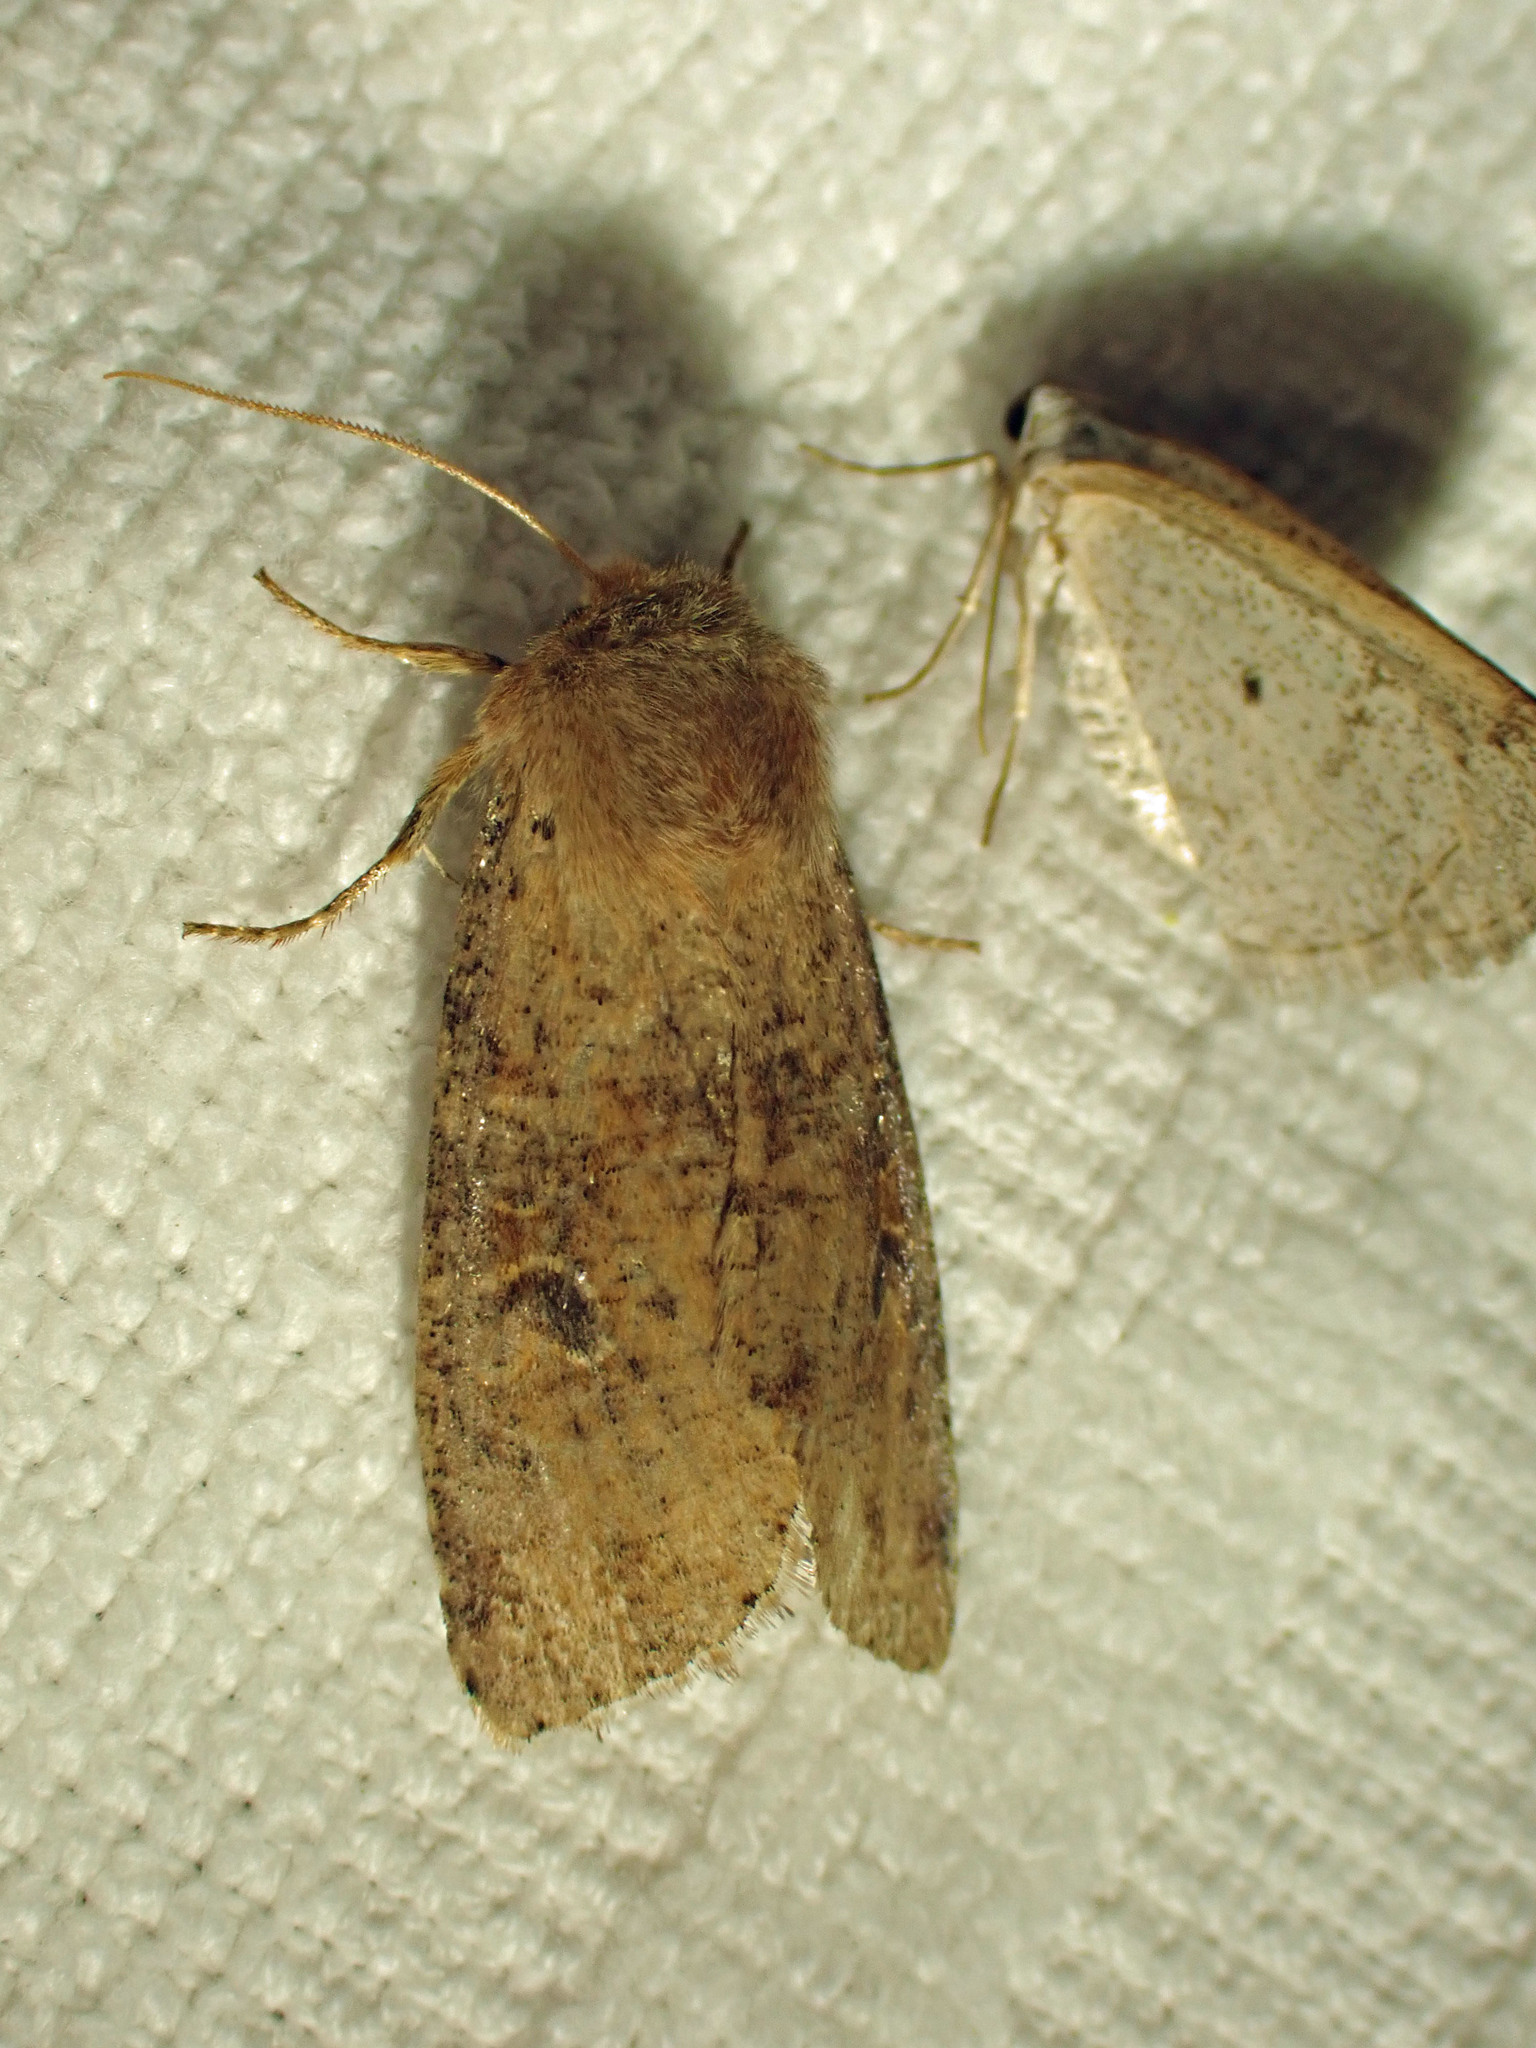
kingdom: Animalia
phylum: Arthropoda
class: Insecta
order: Lepidoptera
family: Noctuidae
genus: Orthosia
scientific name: Orthosia rubescens
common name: Ruby quaker
